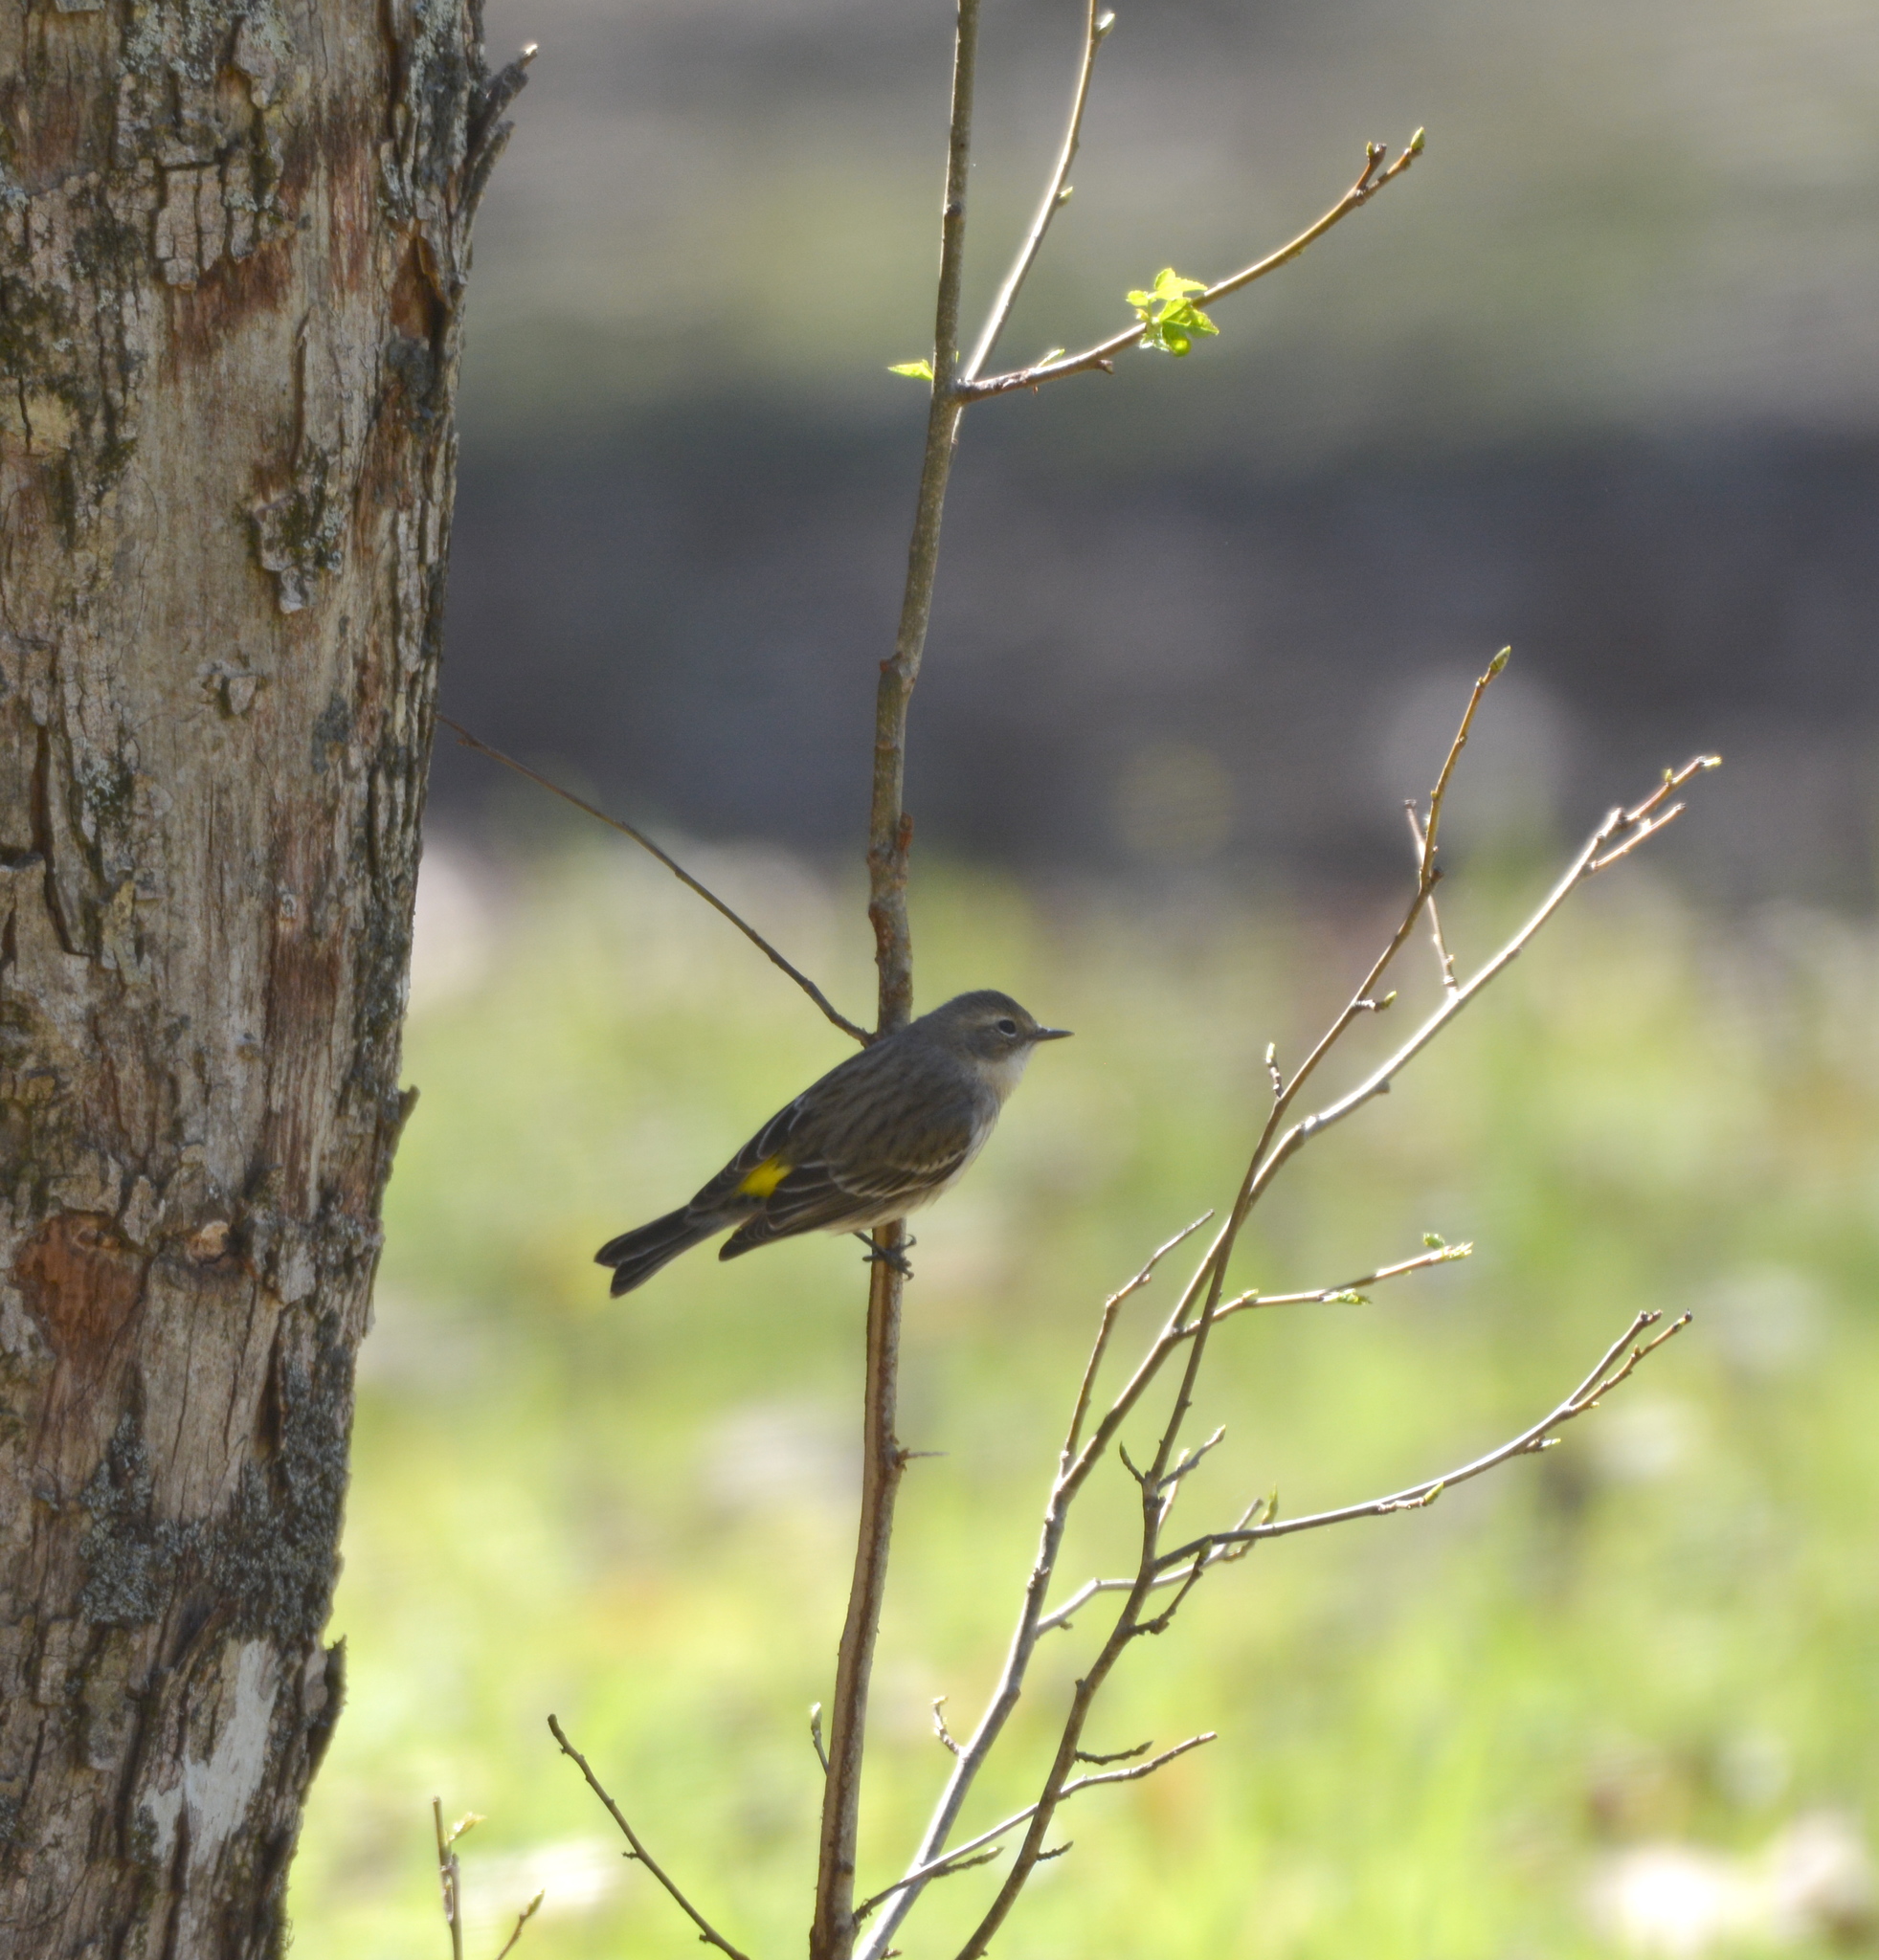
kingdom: Animalia
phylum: Chordata
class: Aves
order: Passeriformes
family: Parulidae
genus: Setophaga
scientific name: Setophaga coronata
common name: Myrtle warbler
